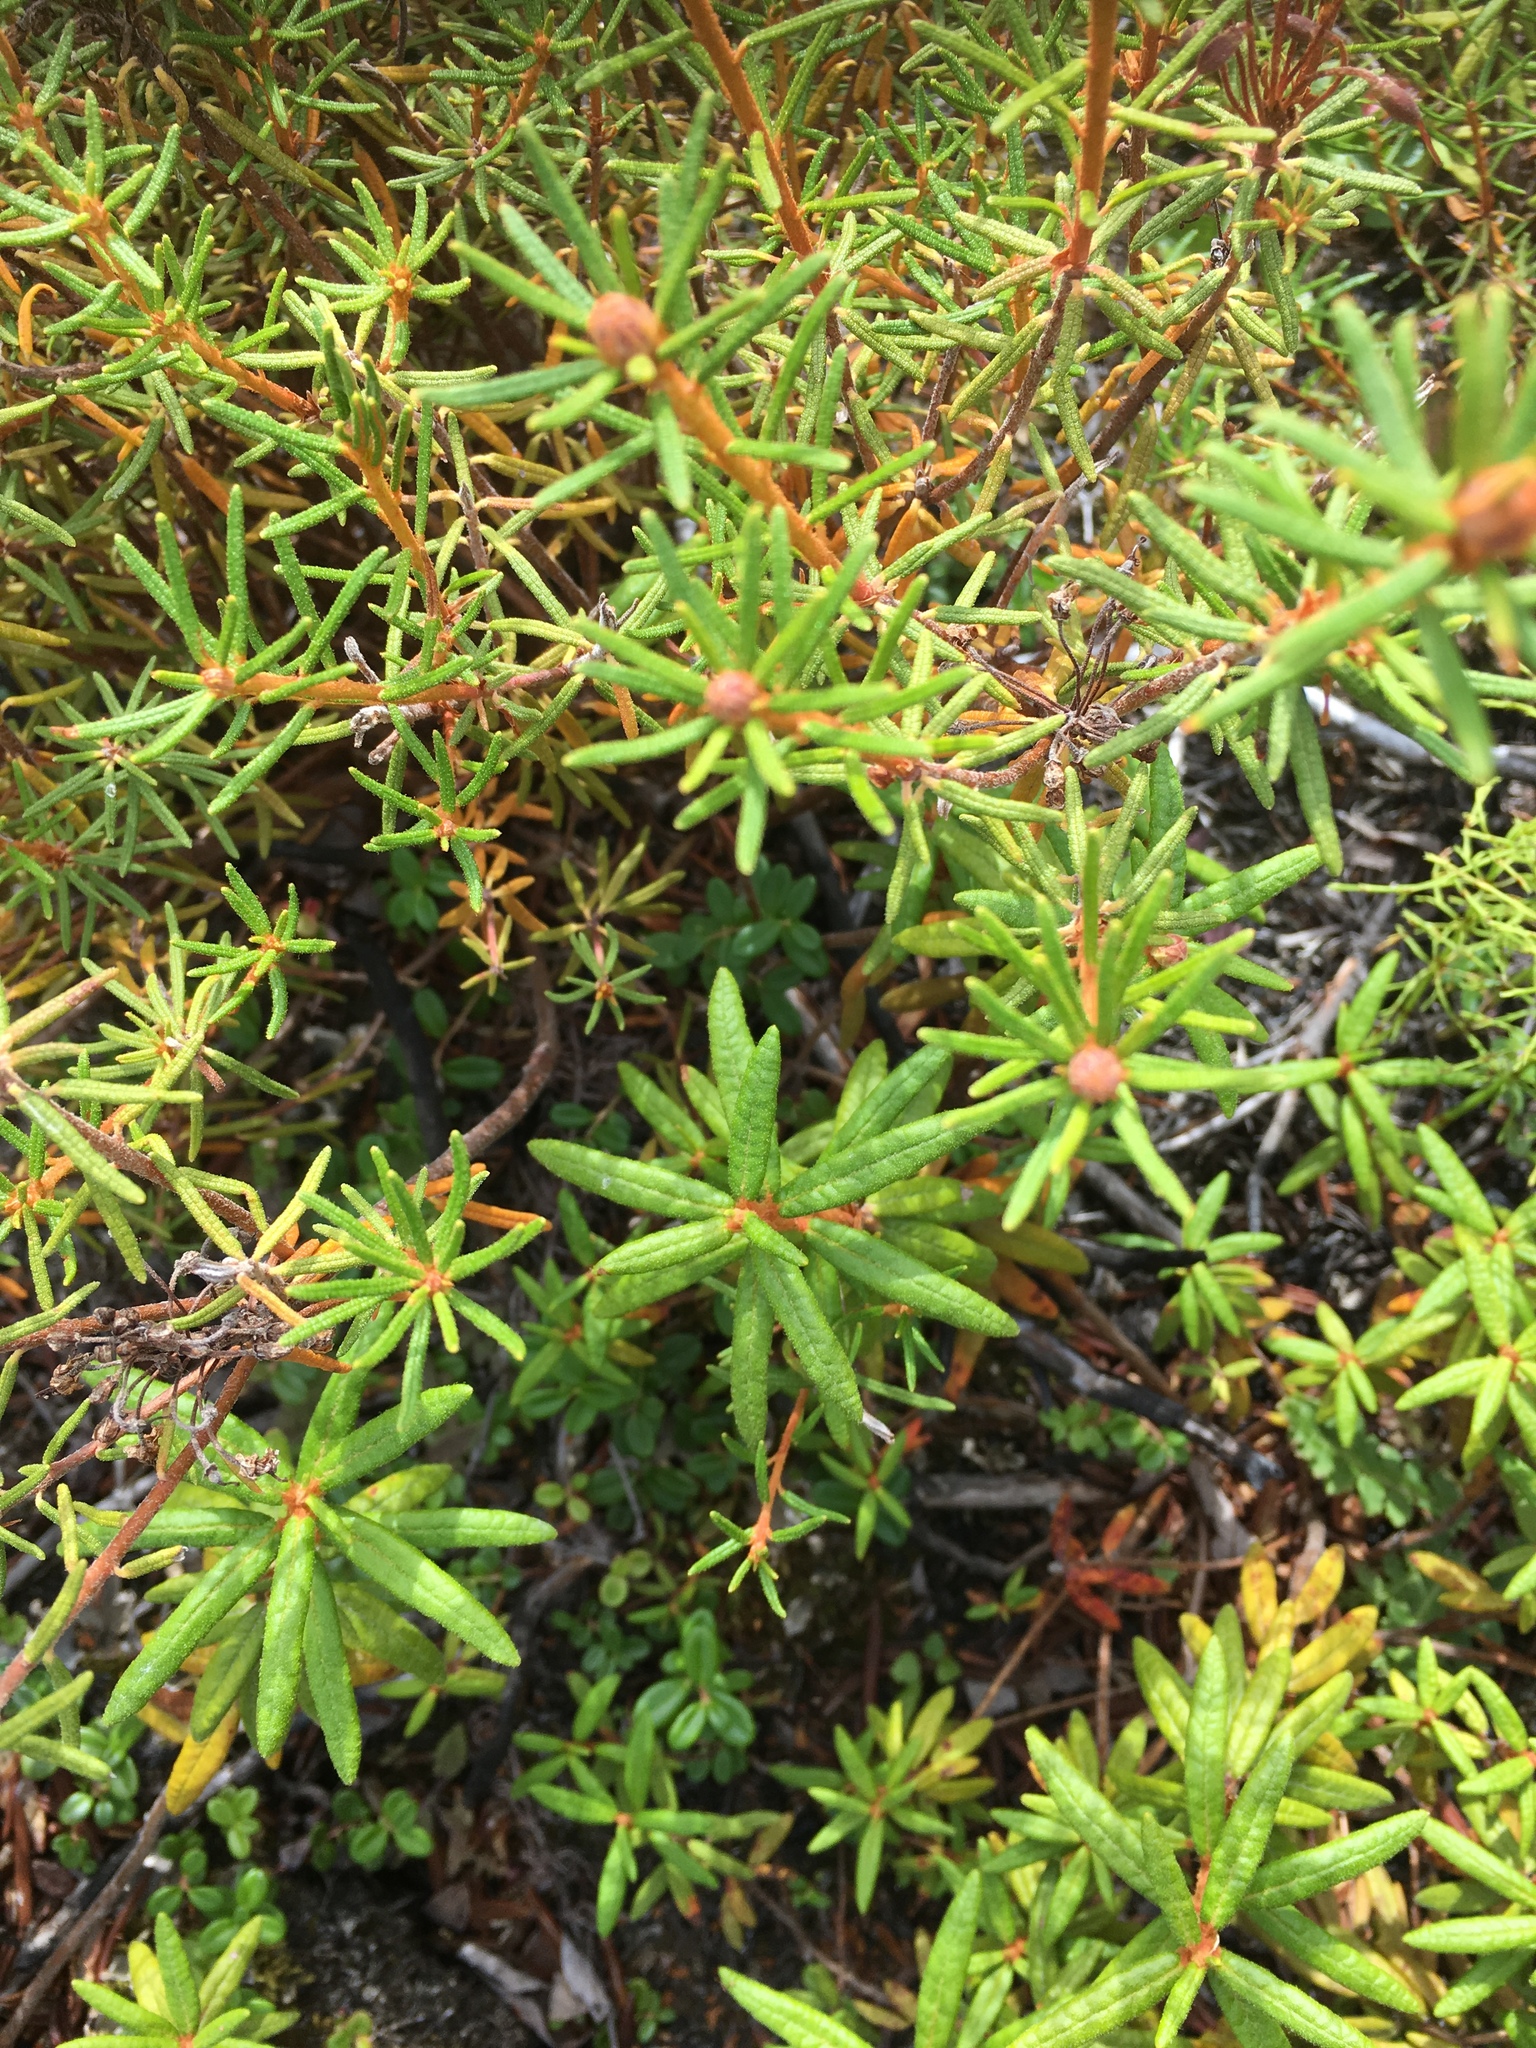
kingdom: Plantae
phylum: Tracheophyta
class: Magnoliopsida
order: Ericales
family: Ericaceae
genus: Rhododendron
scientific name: Rhododendron groenlandicum
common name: Bog labrador tea
